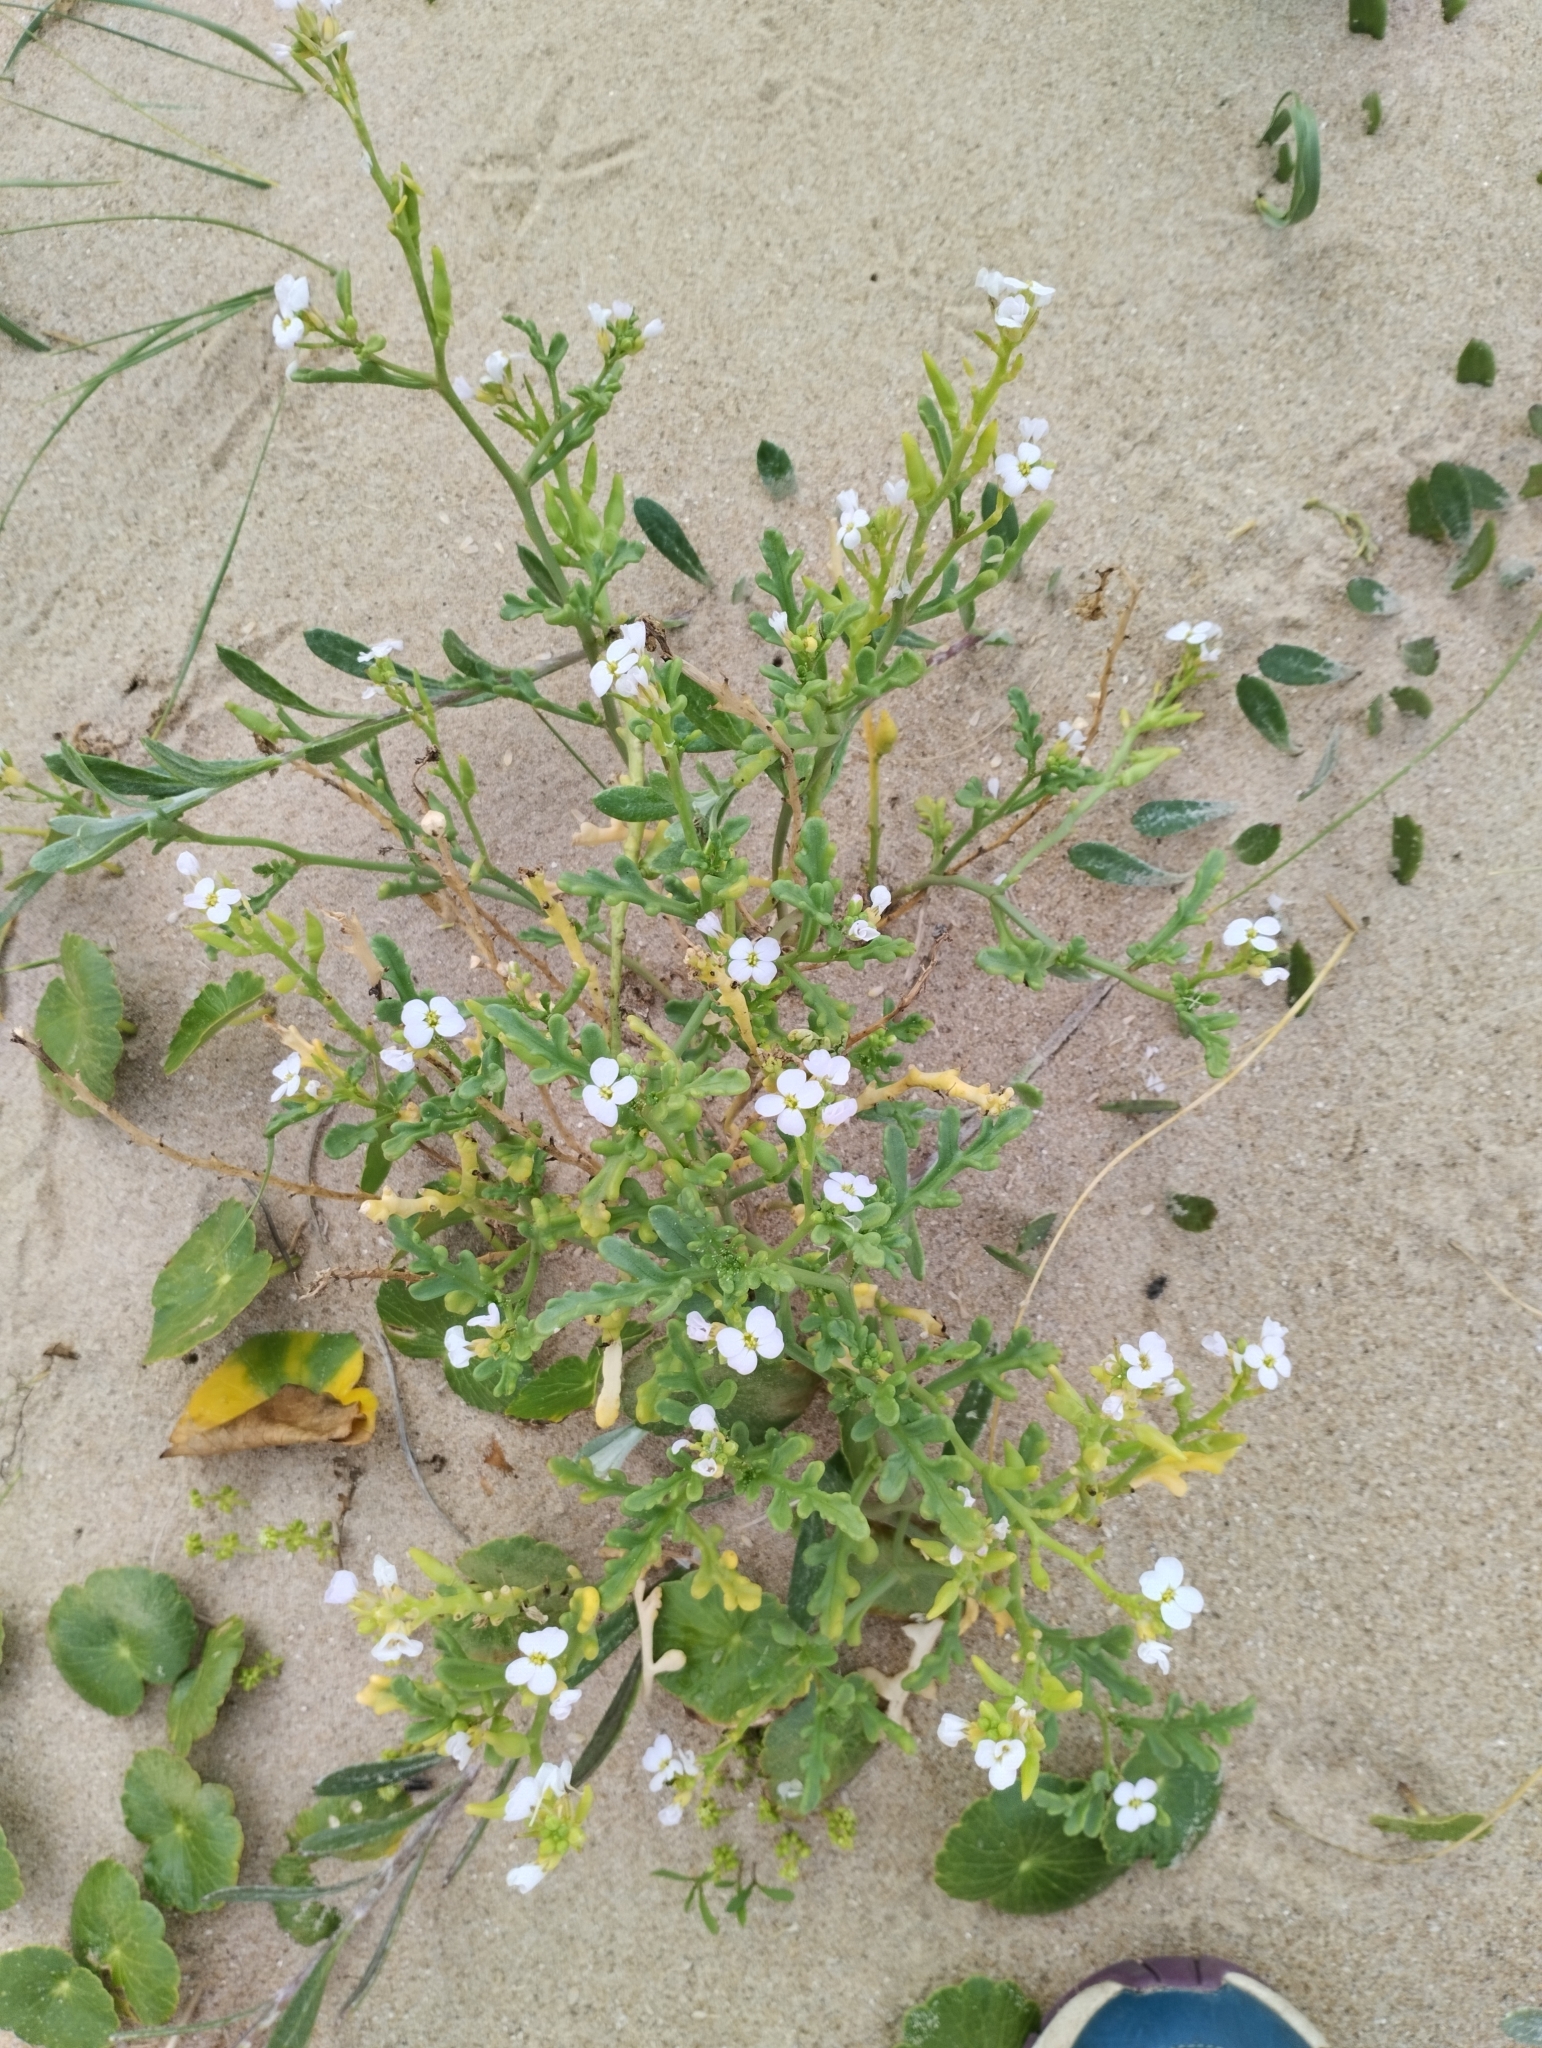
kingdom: Plantae
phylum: Tracheophyta
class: Magnoliopsida
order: Brassicales
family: Brassicaceae
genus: Cakile
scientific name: Cakile maritima
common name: Sea rocket
